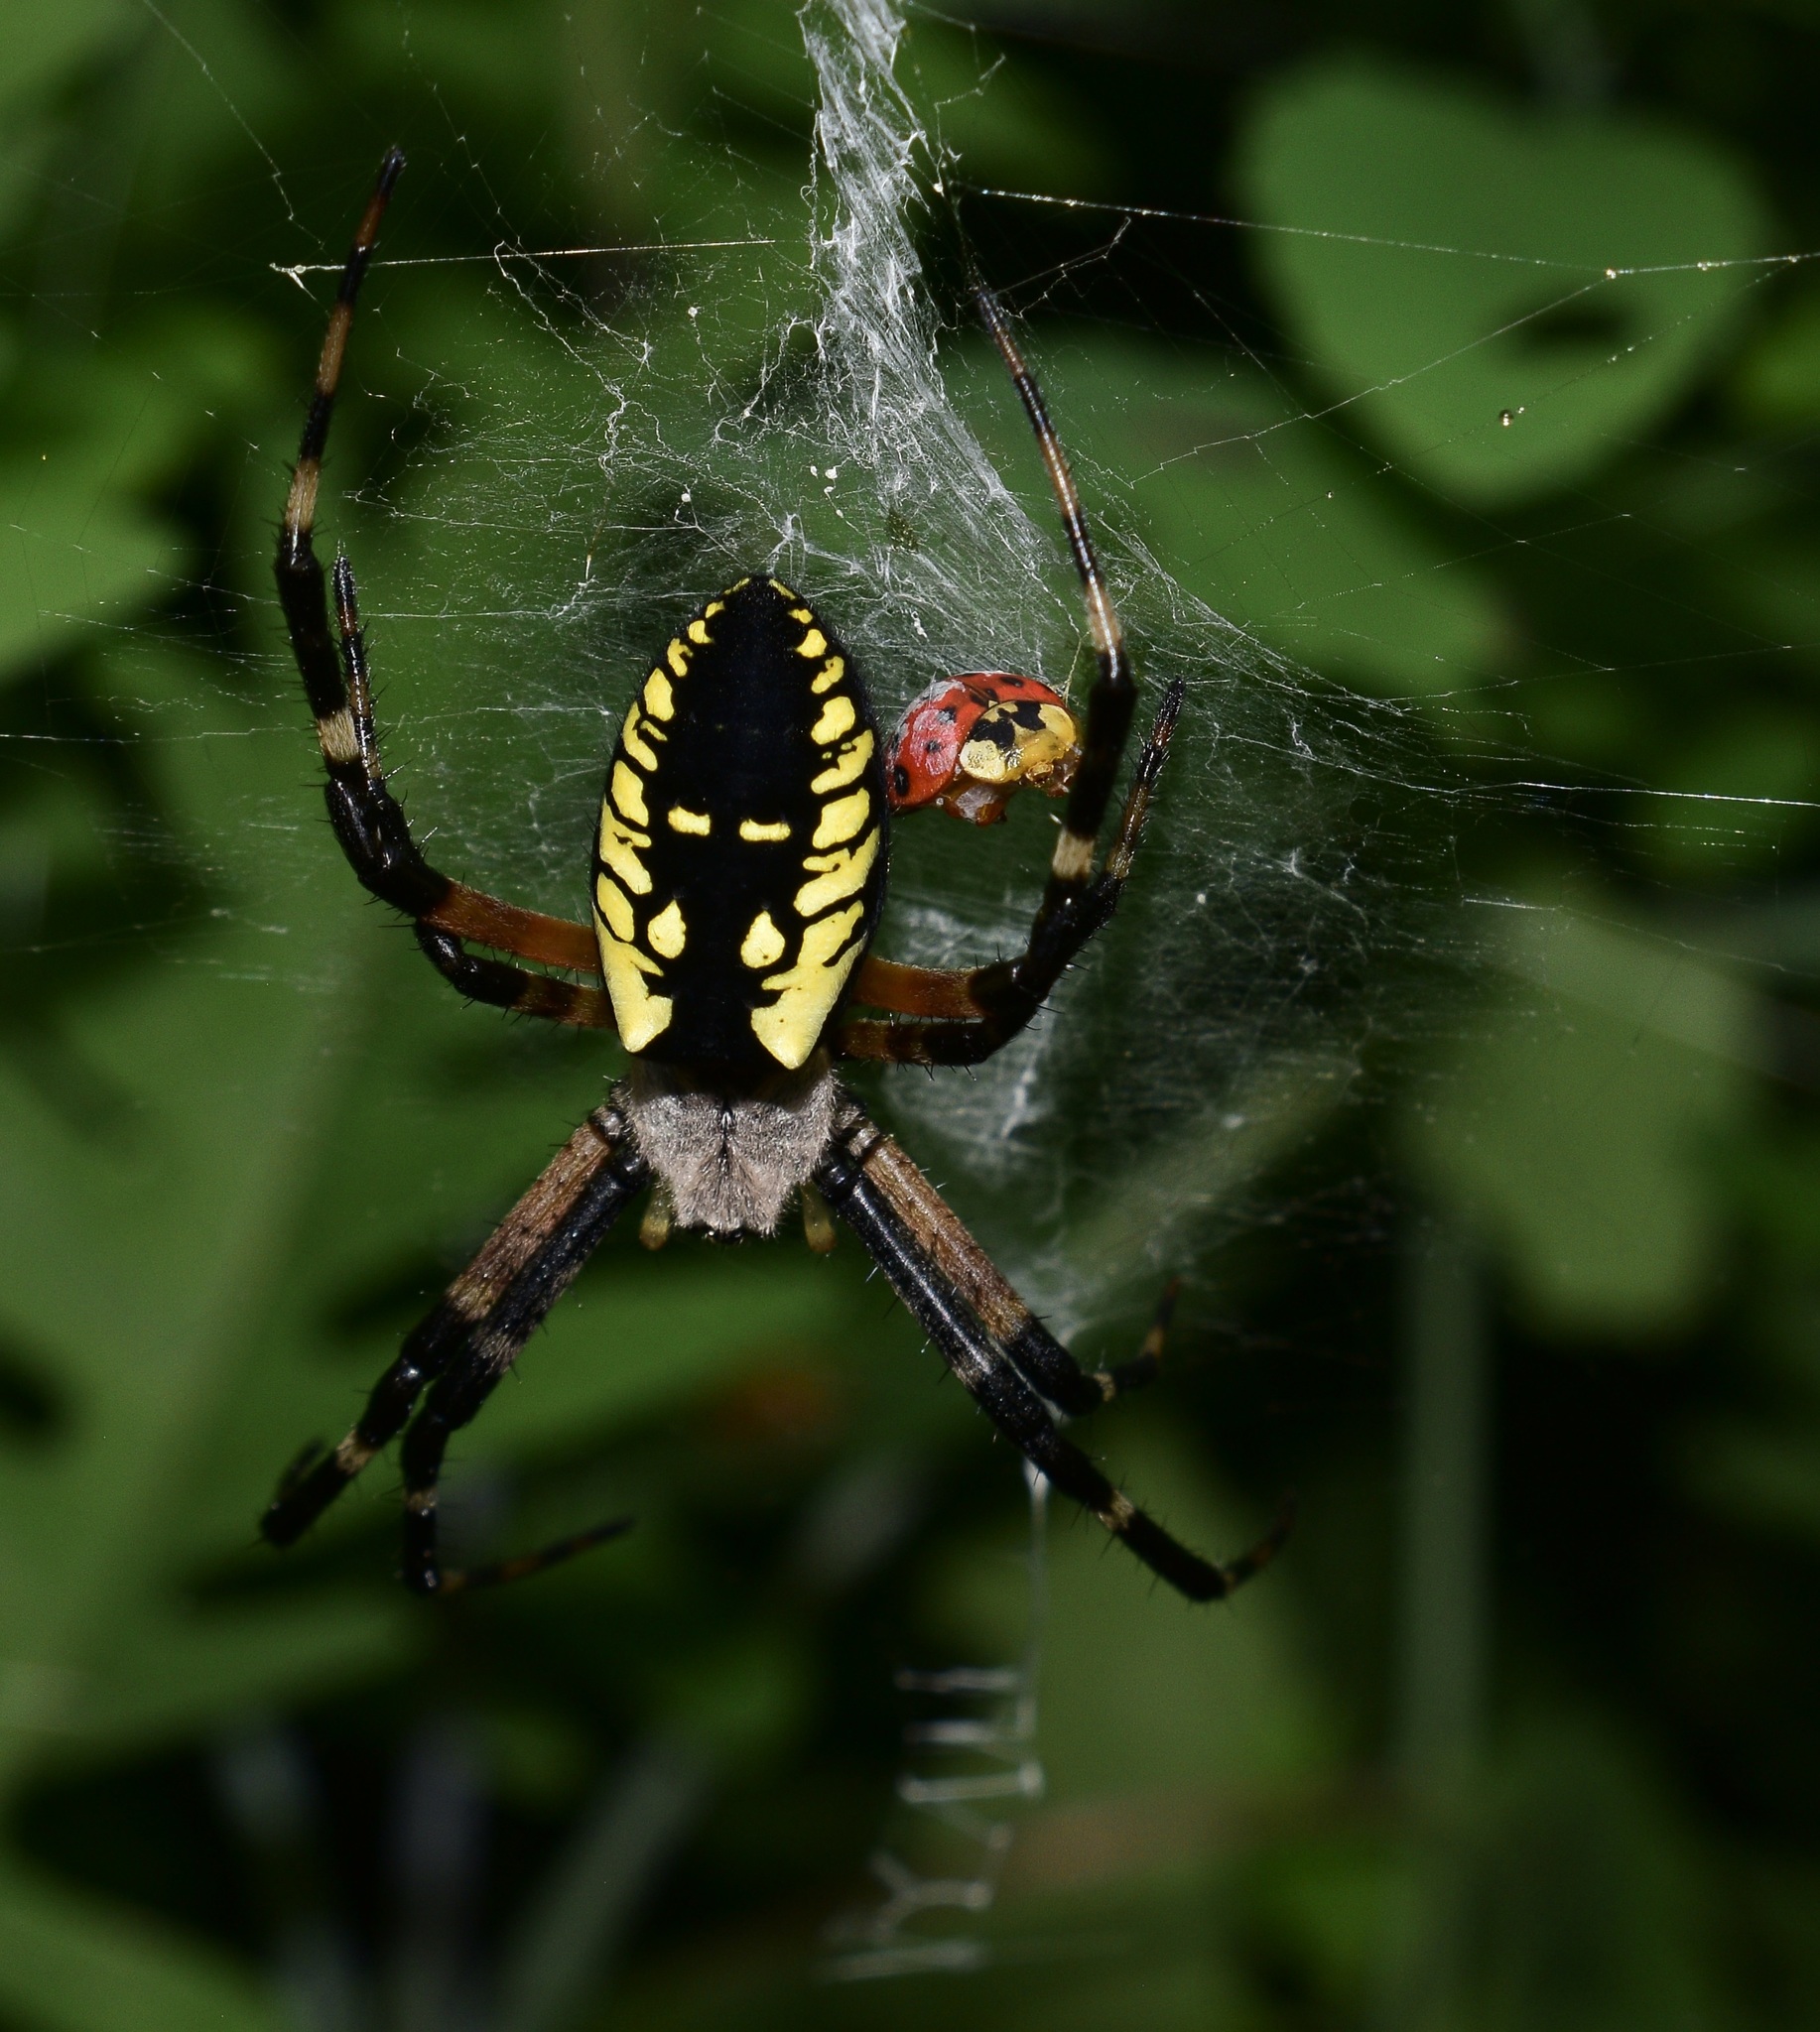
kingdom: Animalia
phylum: Arthropoda
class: Arachnida
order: Araneae
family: Araneidae
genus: Argiope
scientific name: Argiope aurantia
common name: Orb weavers
